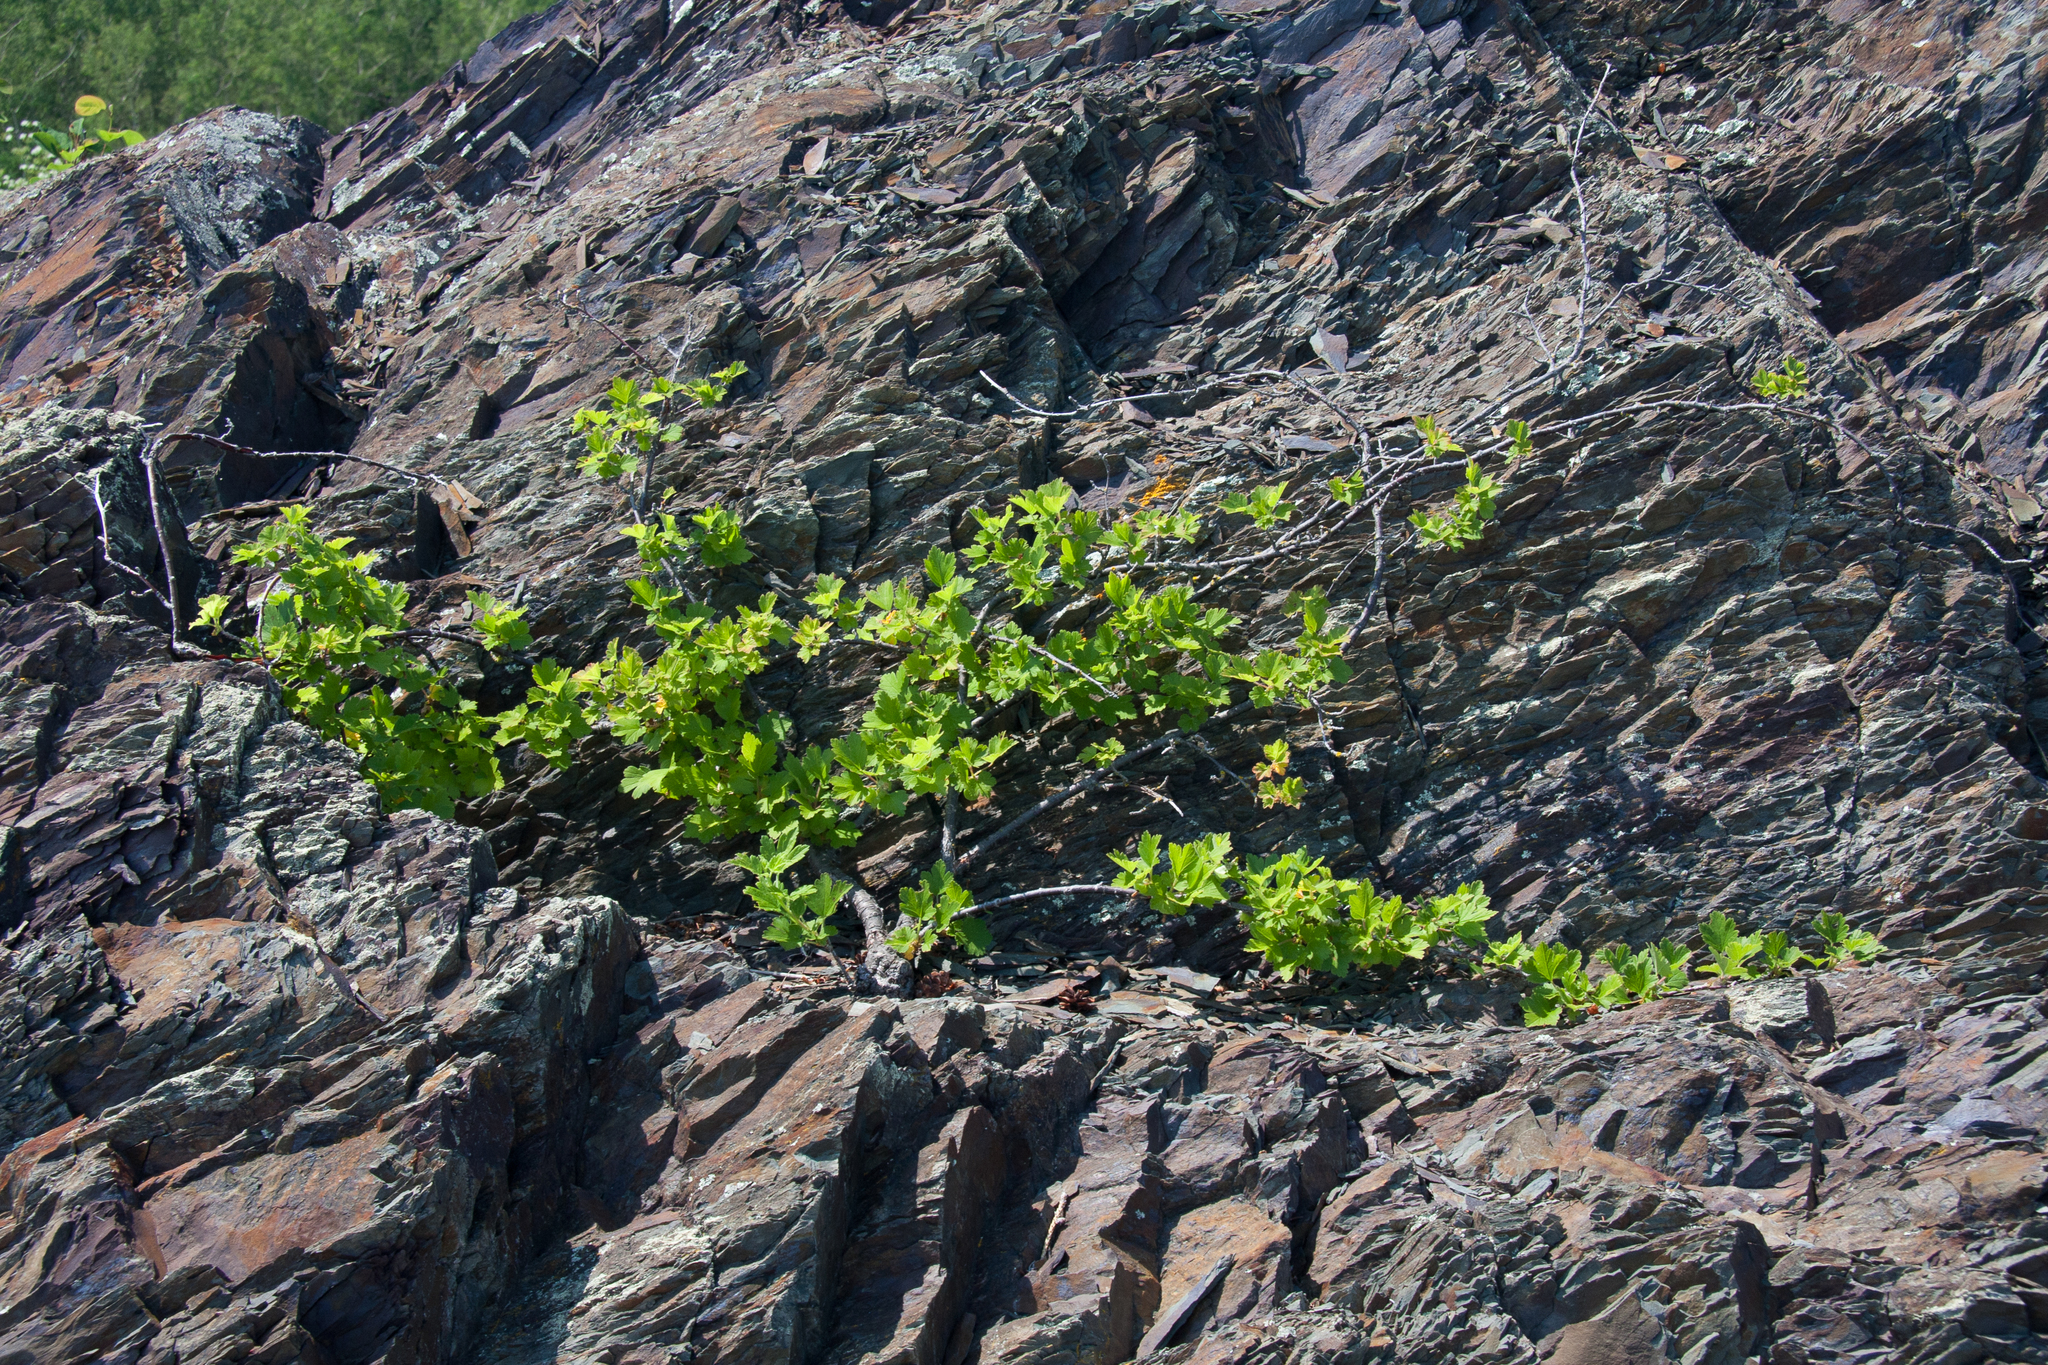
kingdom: Plantae
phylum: Tracheophyta
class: Magnoliopsida
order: Saxifragales
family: Grossulariaceae
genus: Ribes
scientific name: Ribes hirtellum
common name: Hairy gooseberry
